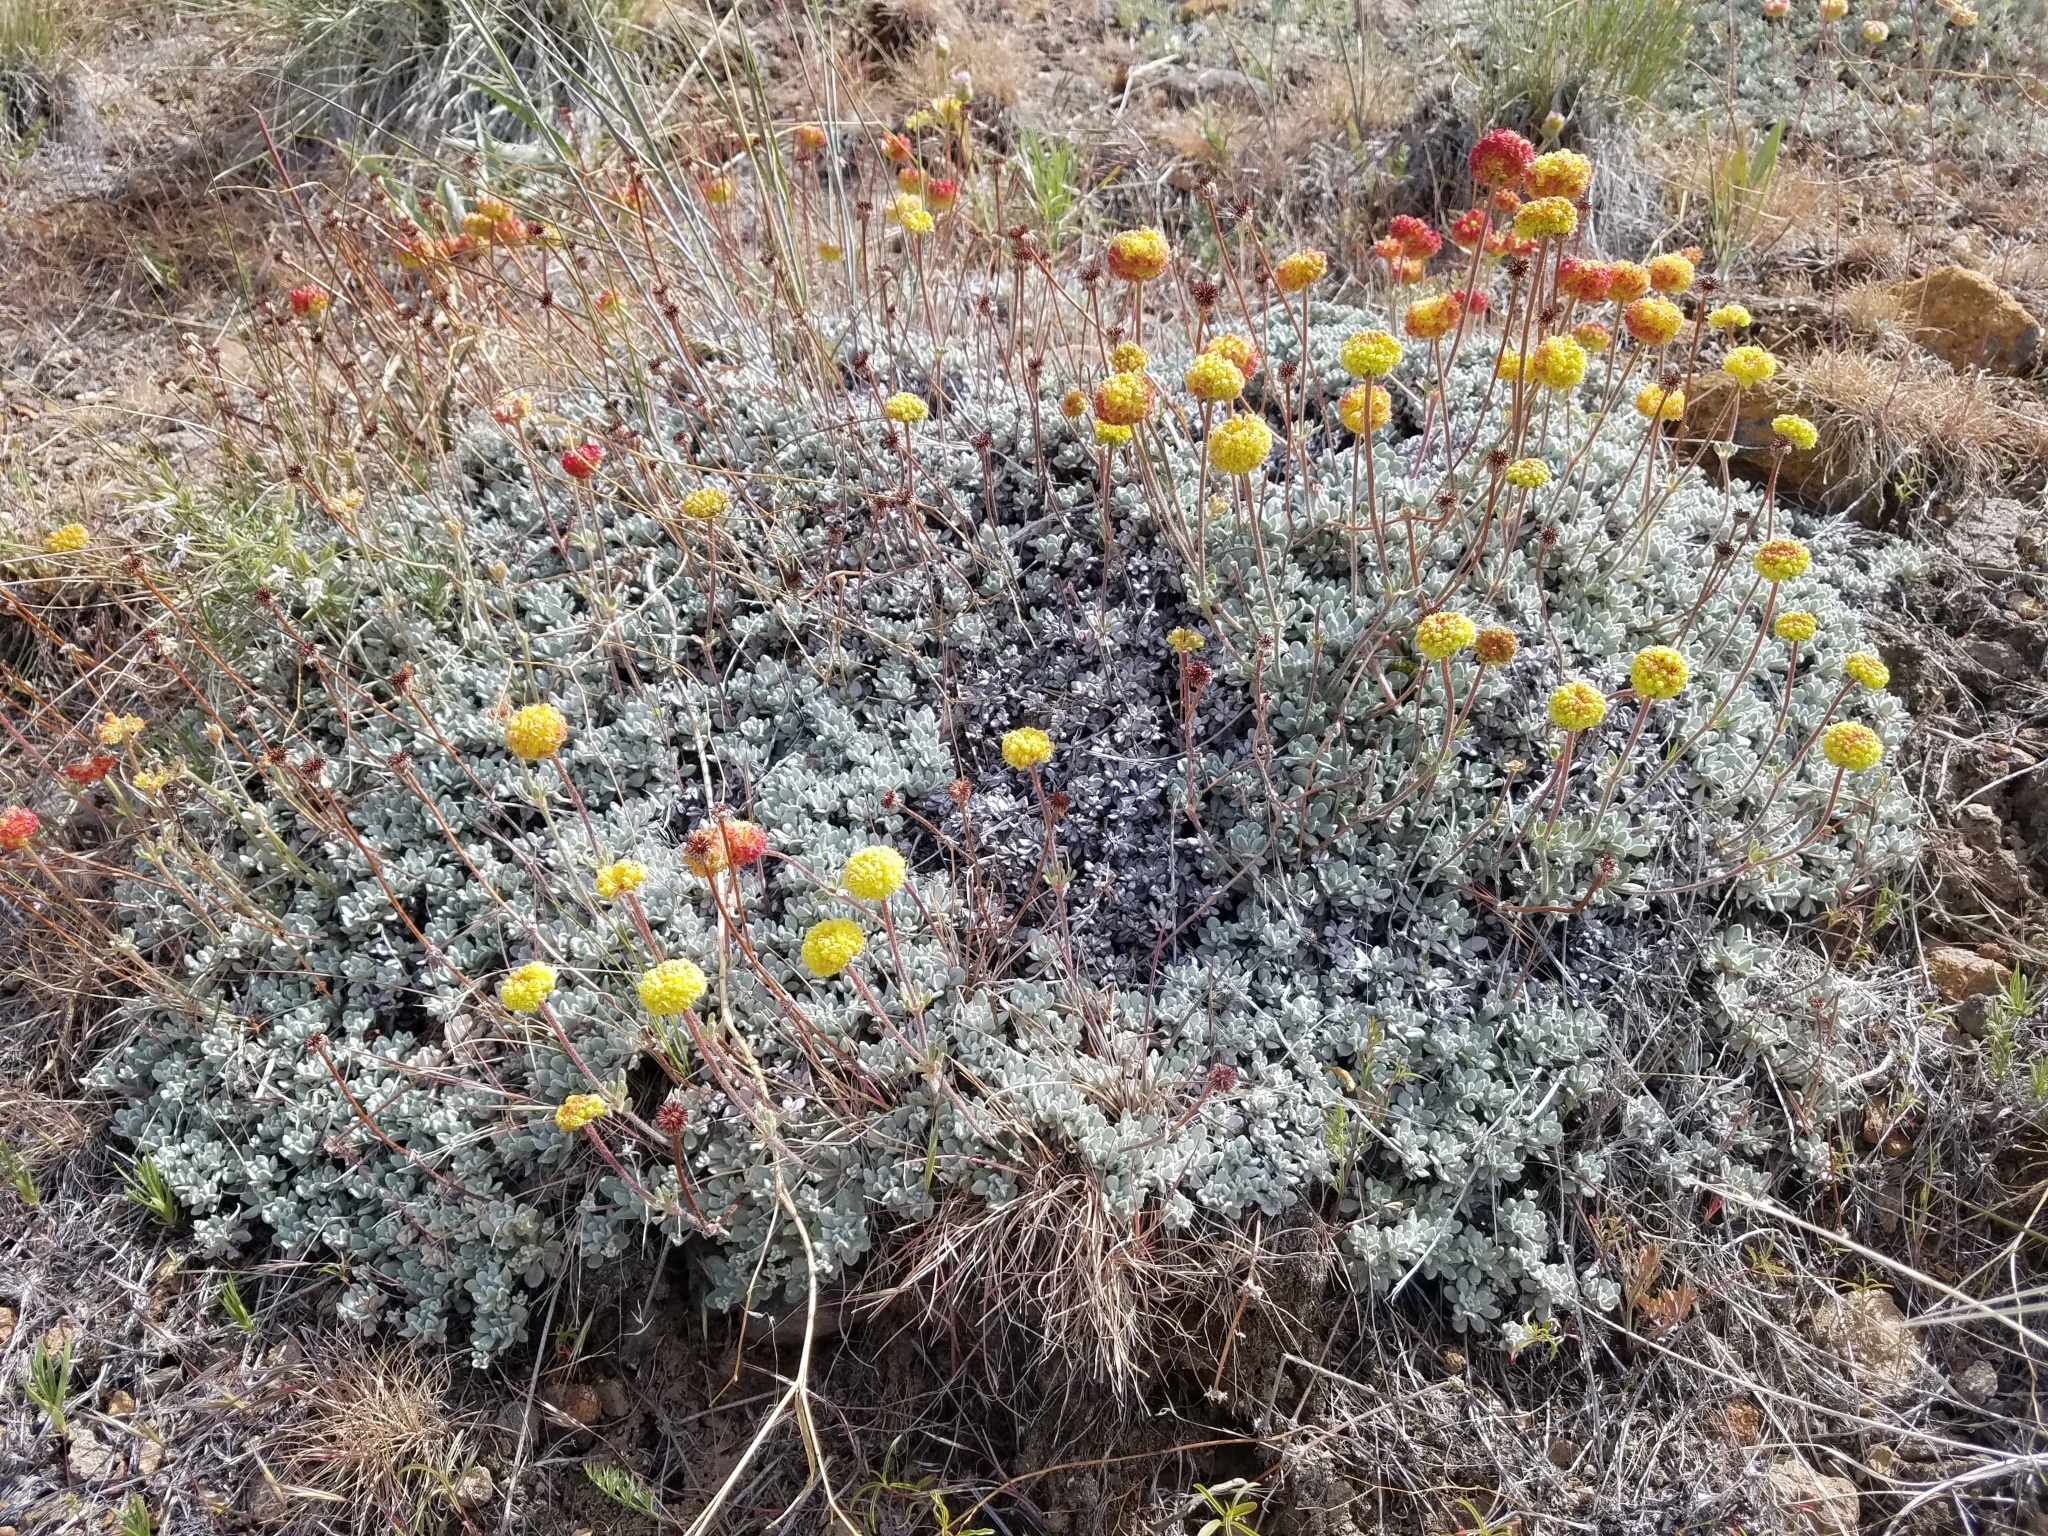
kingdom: Plantae
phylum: Tracheophyta
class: Magnoliopsida
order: Caryophyllales
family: Polygonaceae
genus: Eriogonum
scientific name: Eriogonum douglasii
